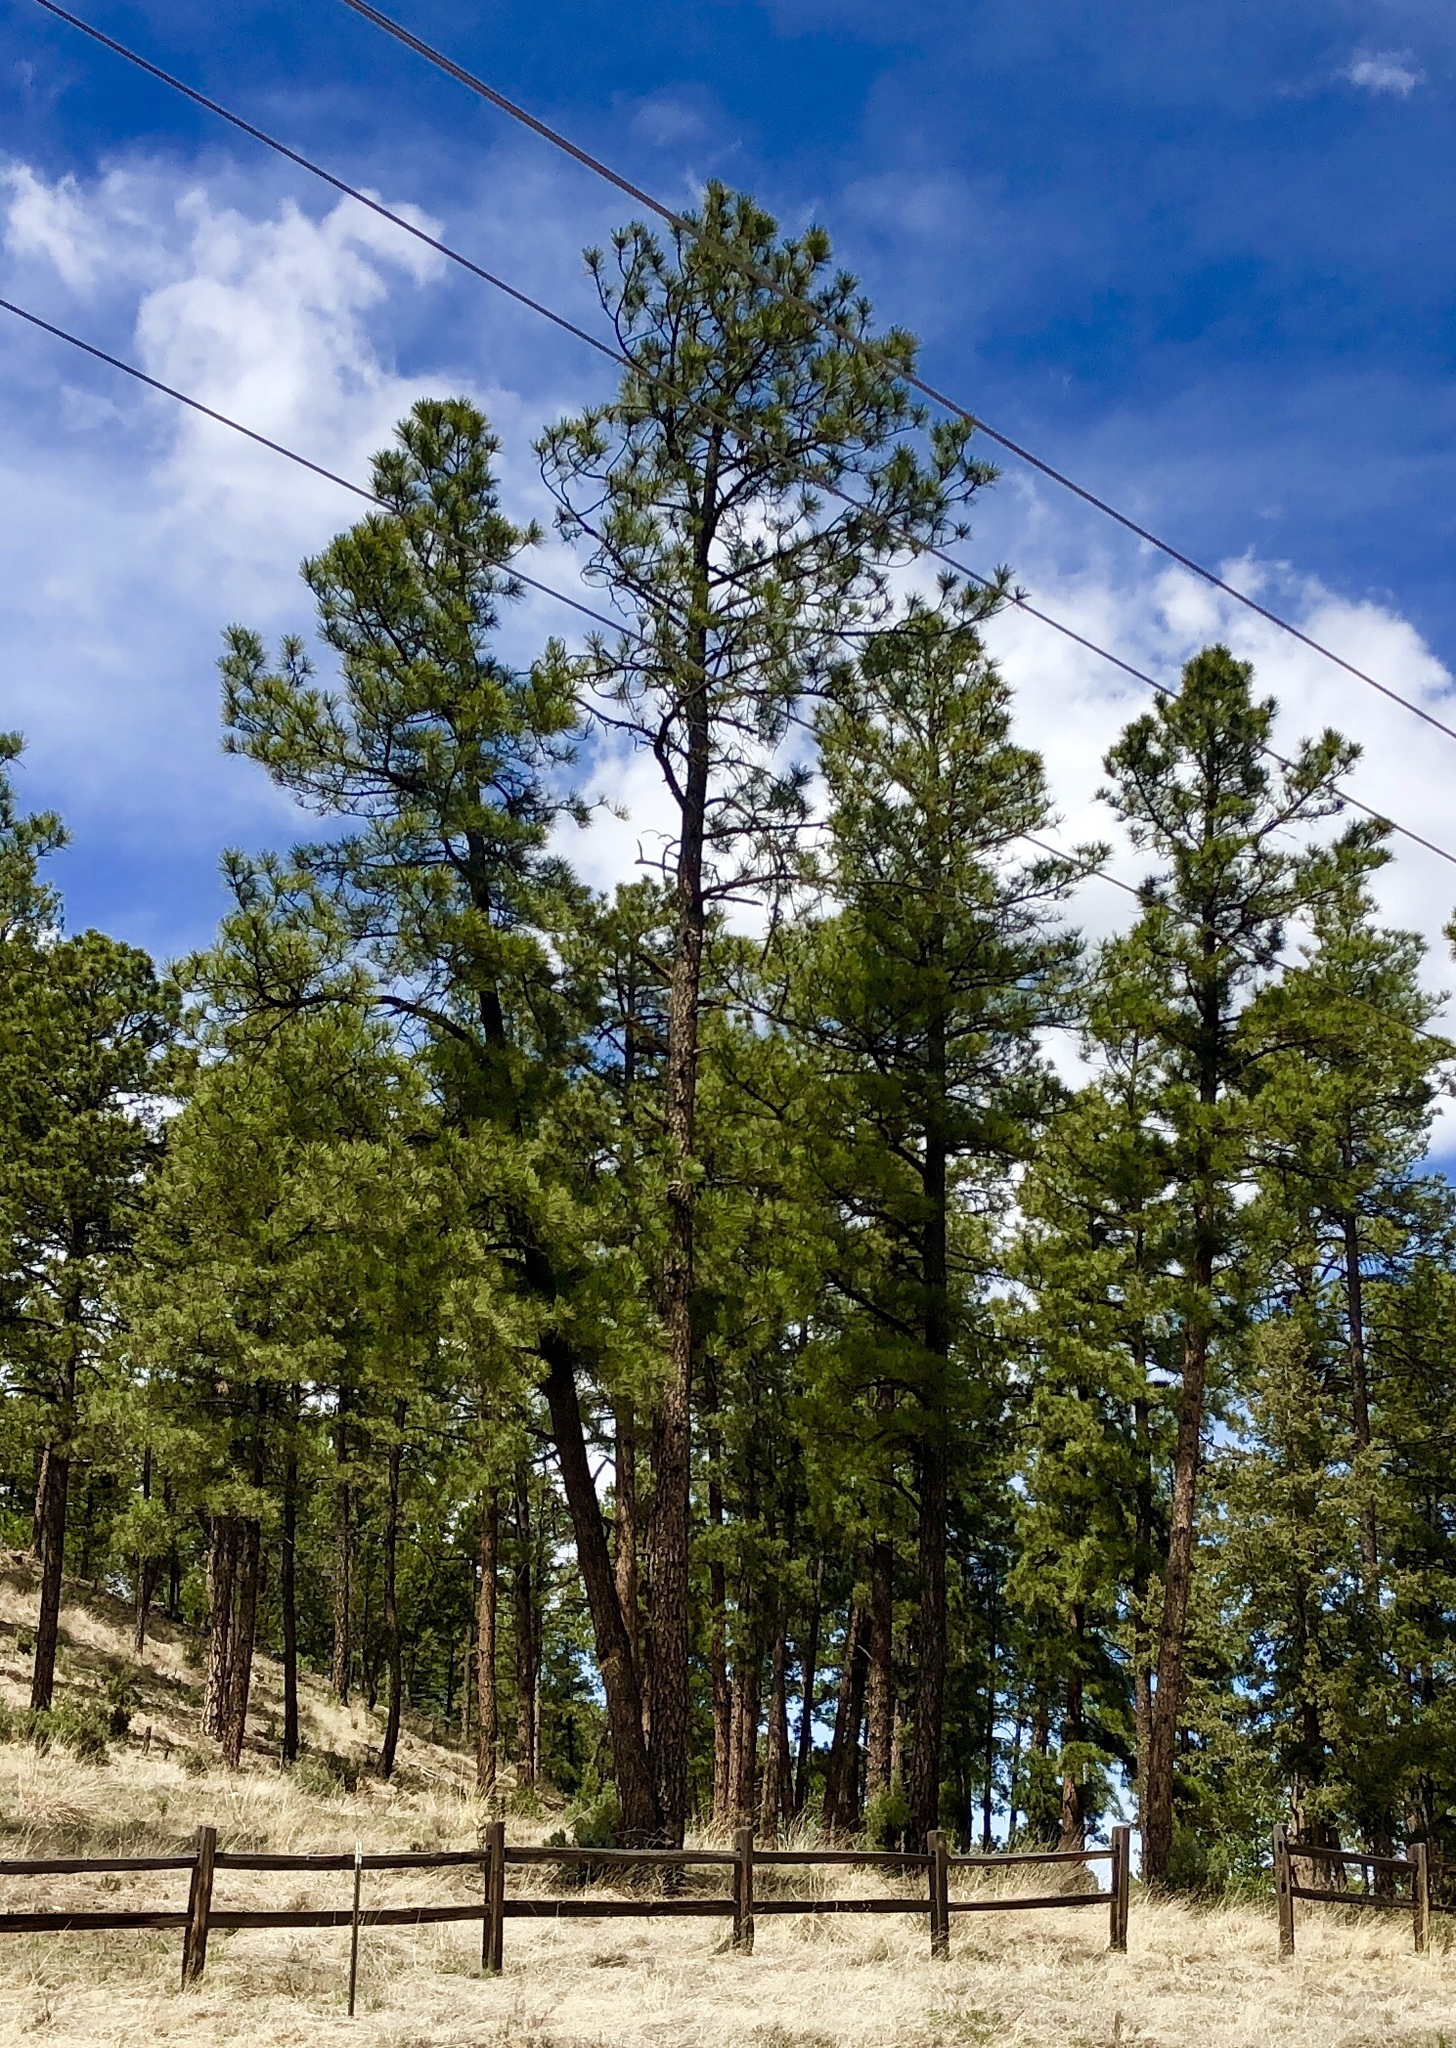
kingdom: Plantae
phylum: Tracheophyta
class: Pinopsida
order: Pinales
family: Pinaceae
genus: Pinus
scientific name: Pinus ponderosa
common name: Western yellow-pine
